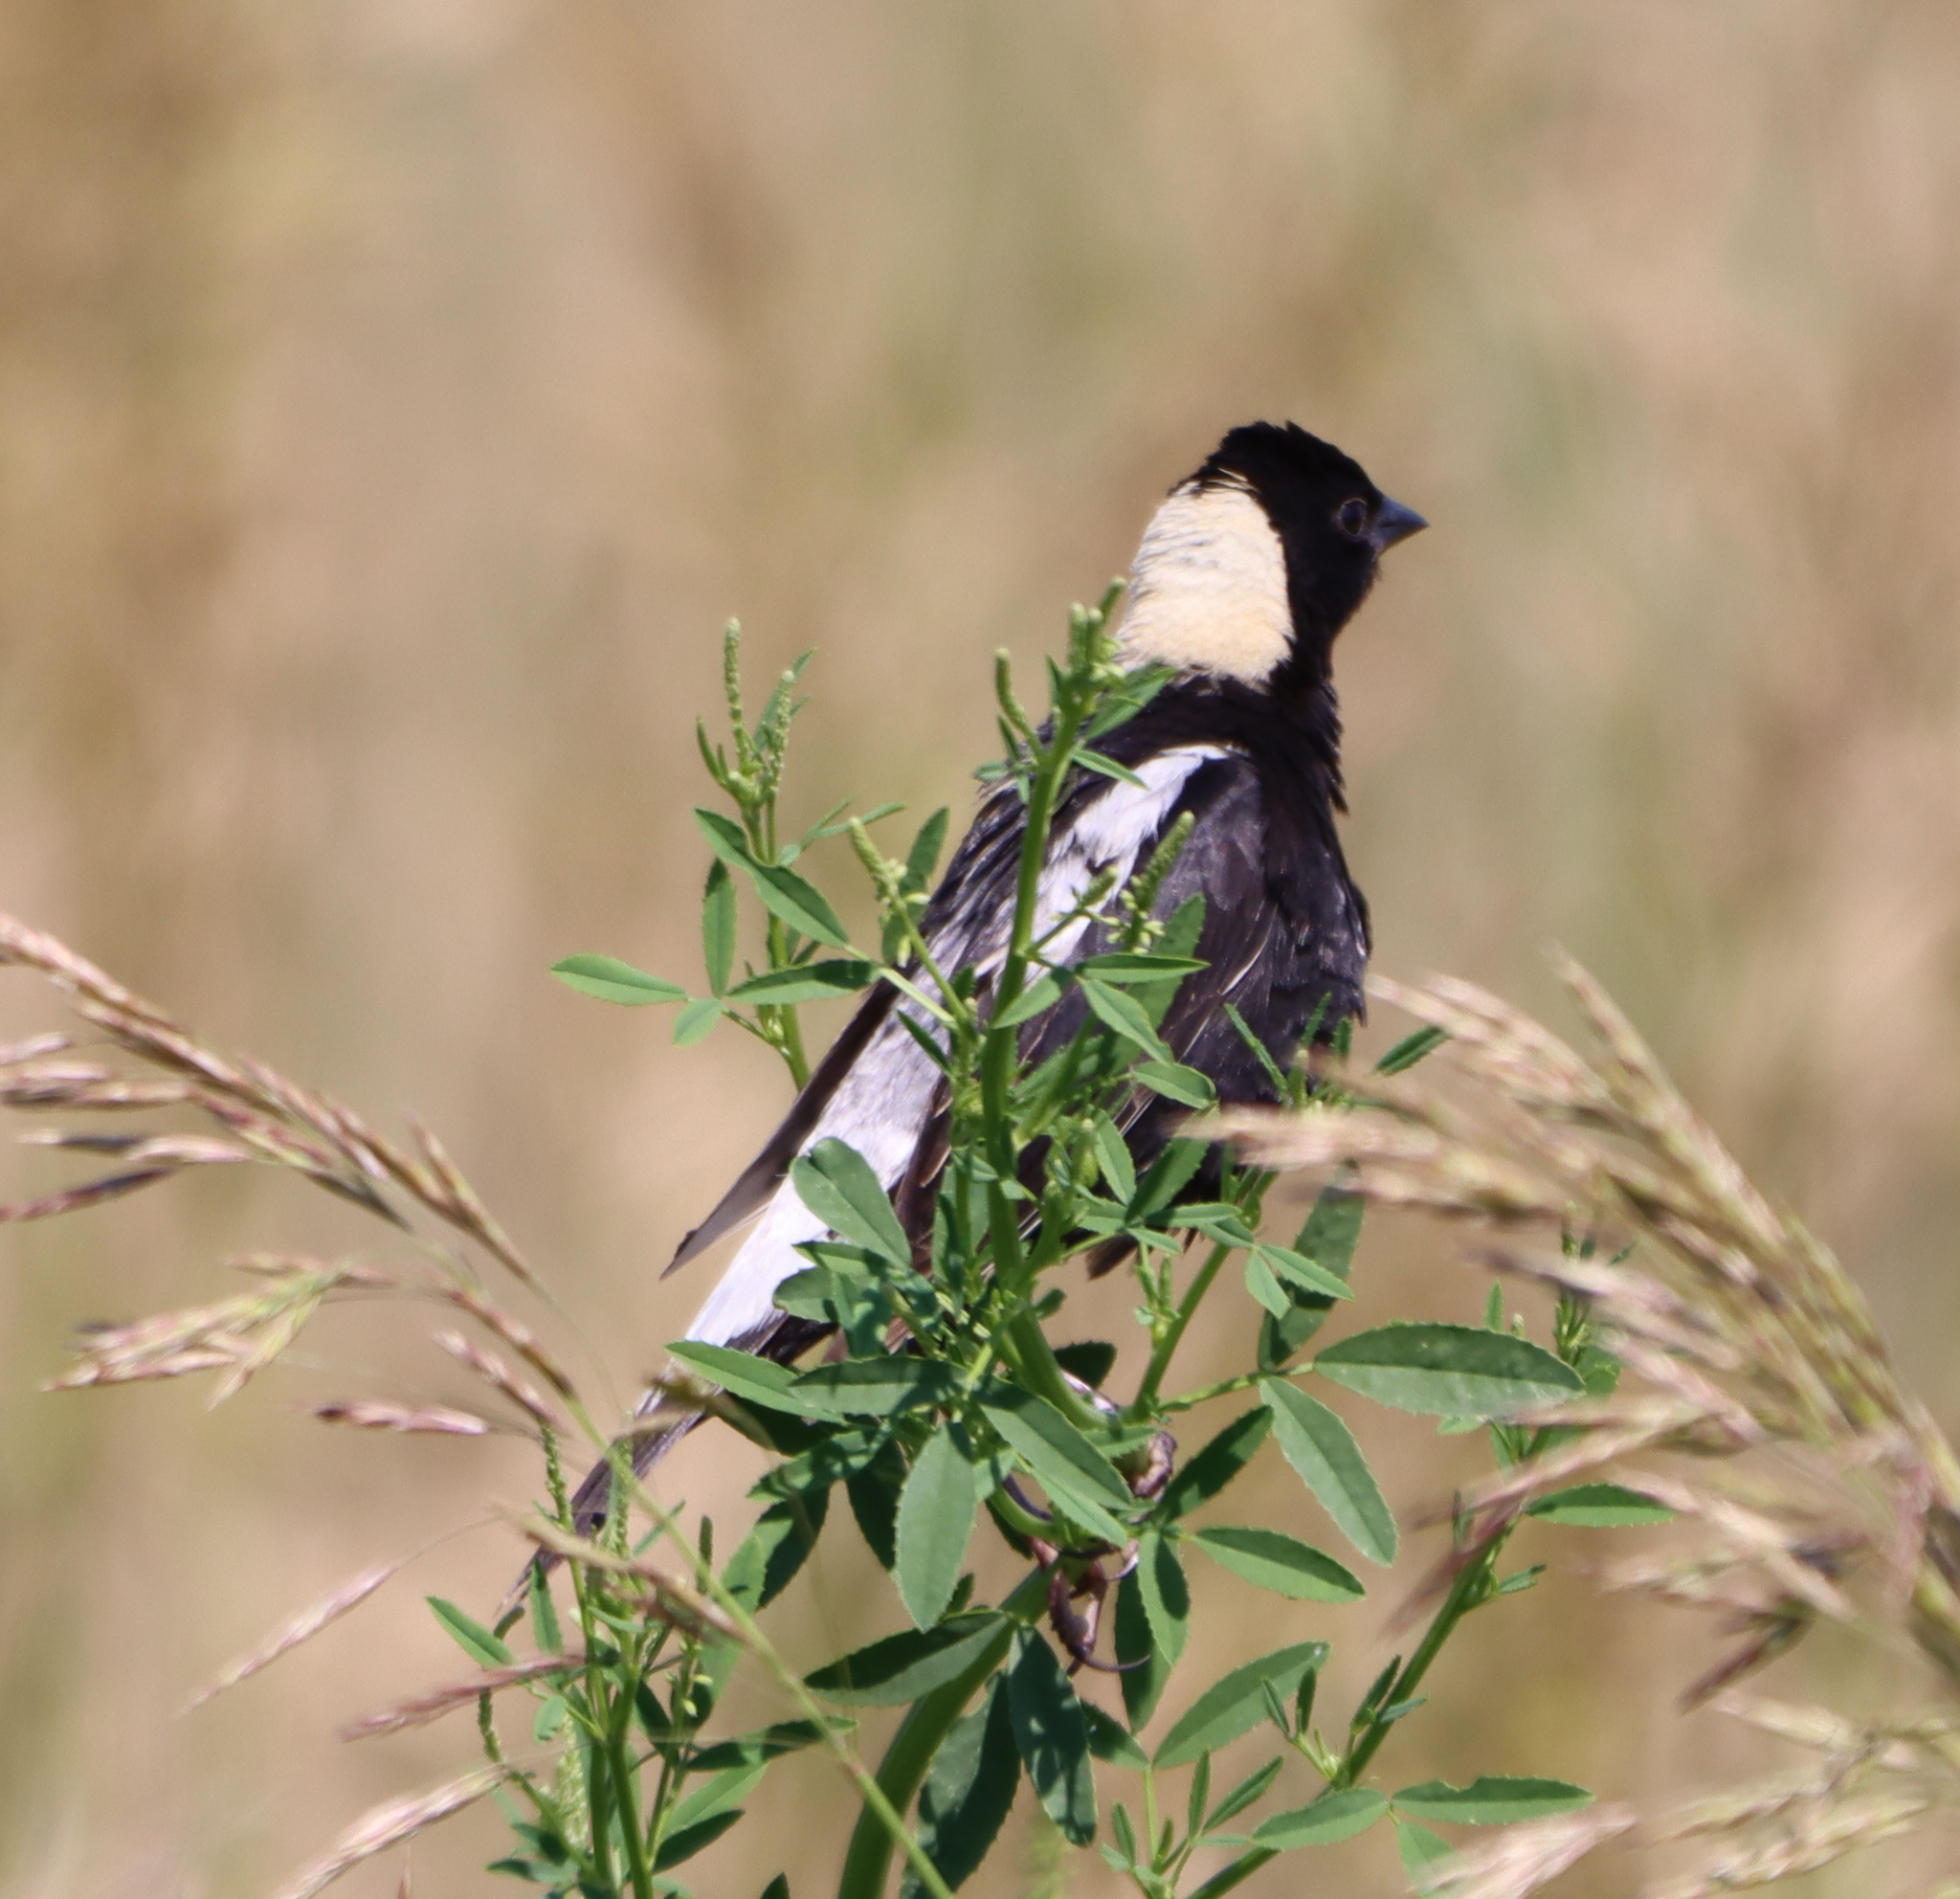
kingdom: Animalia
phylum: Chordata
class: Aves
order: Passeriformes
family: Icteridae
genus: Dolichonyx
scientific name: Dolichonyx oryzivorus
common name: Bobolink
